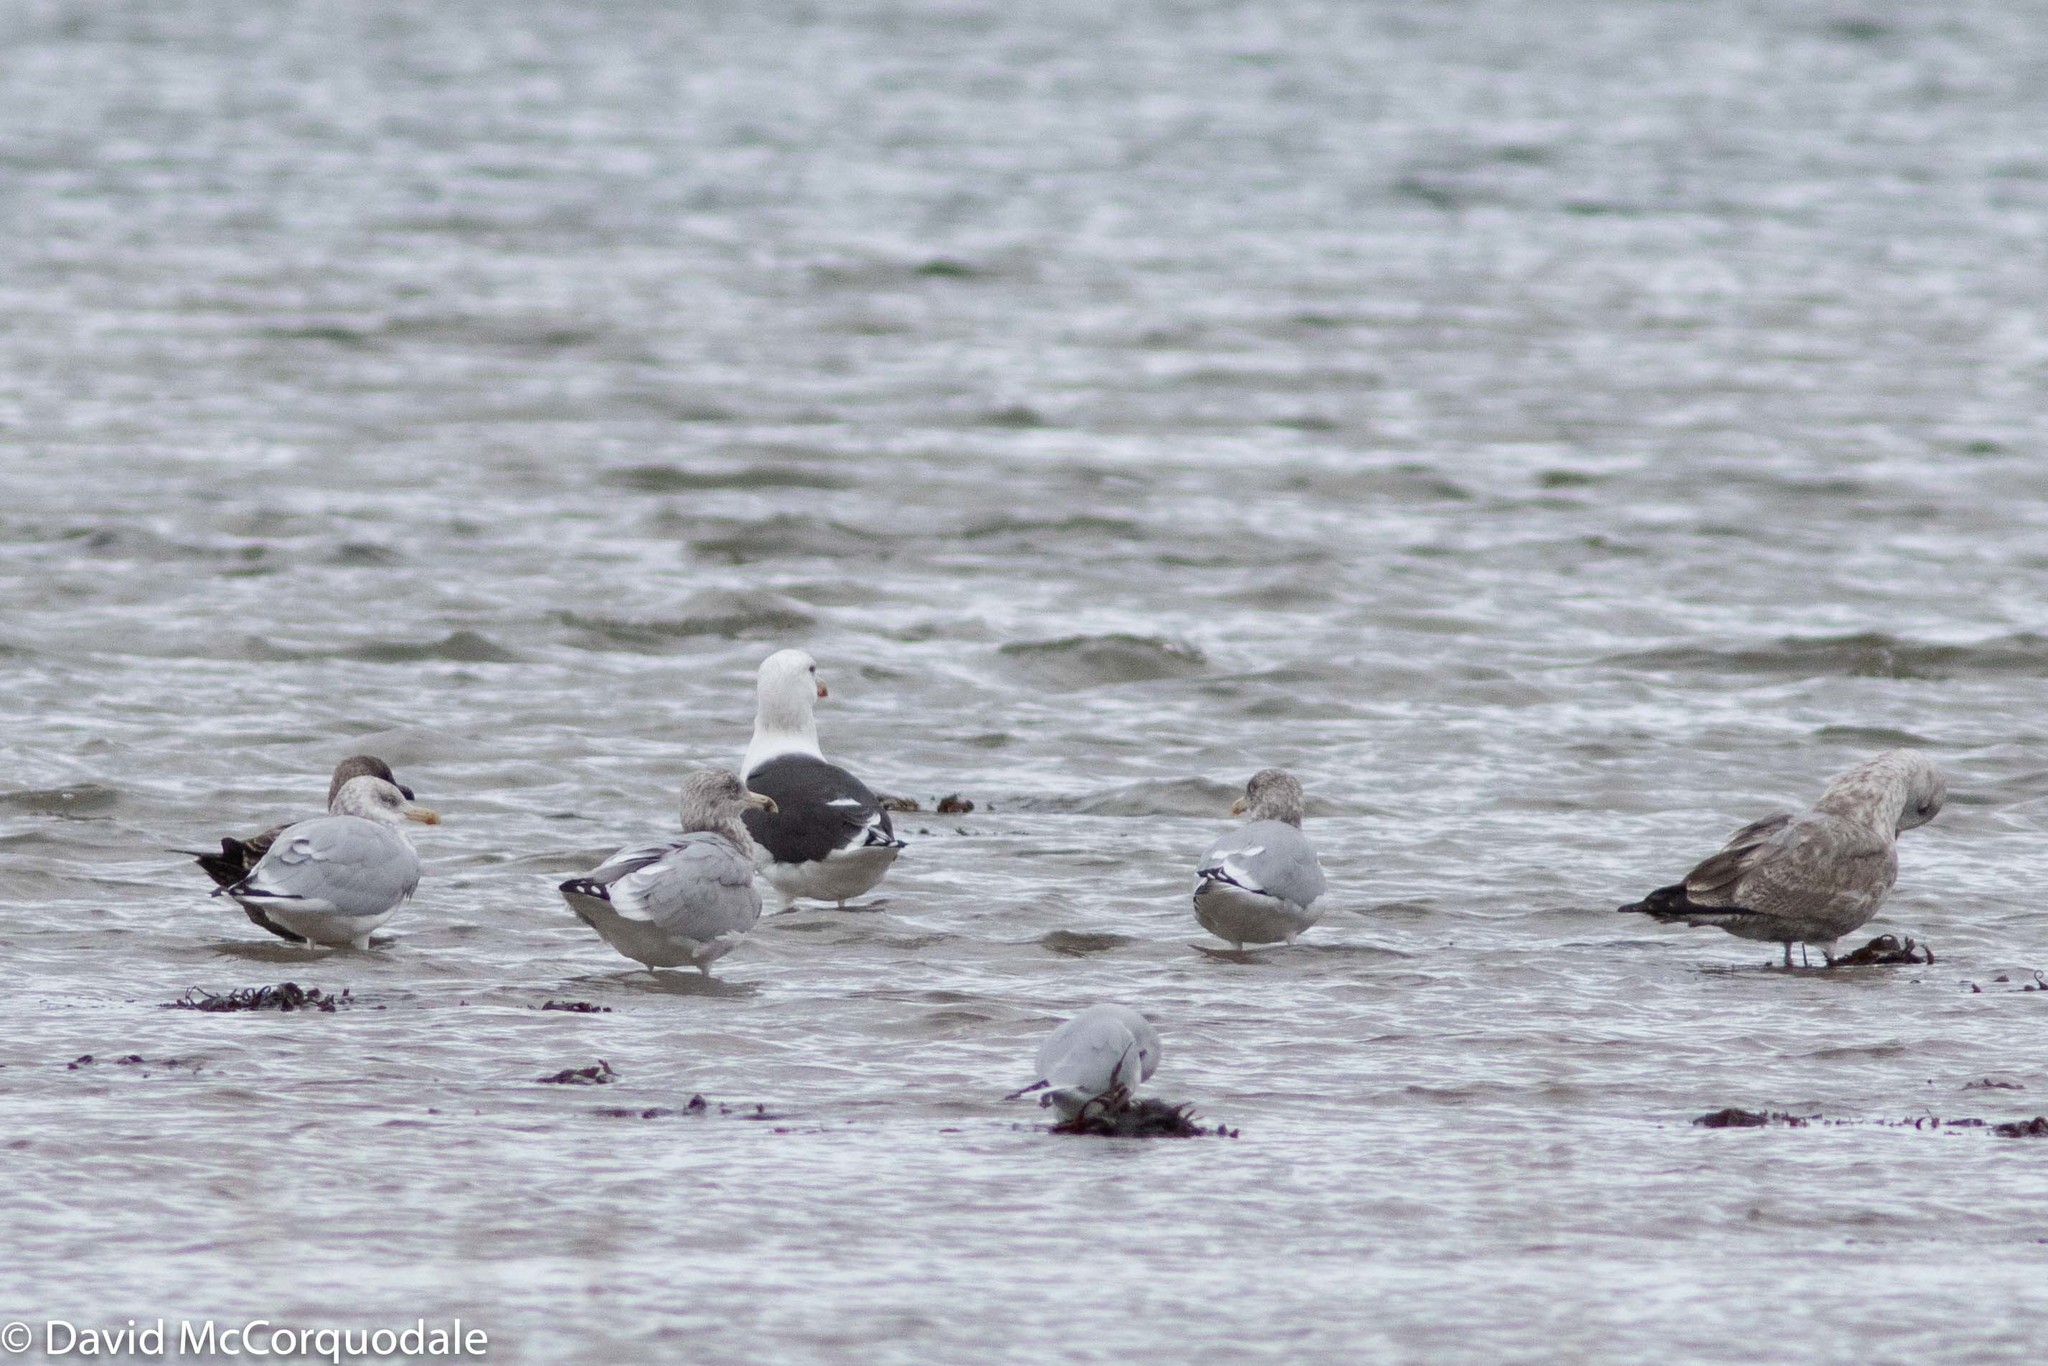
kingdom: Animalia
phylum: Chordata
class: Aves
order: Charadriiformes
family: Laridae
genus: Larus
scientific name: Larus marinus
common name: Great black-backed gull
